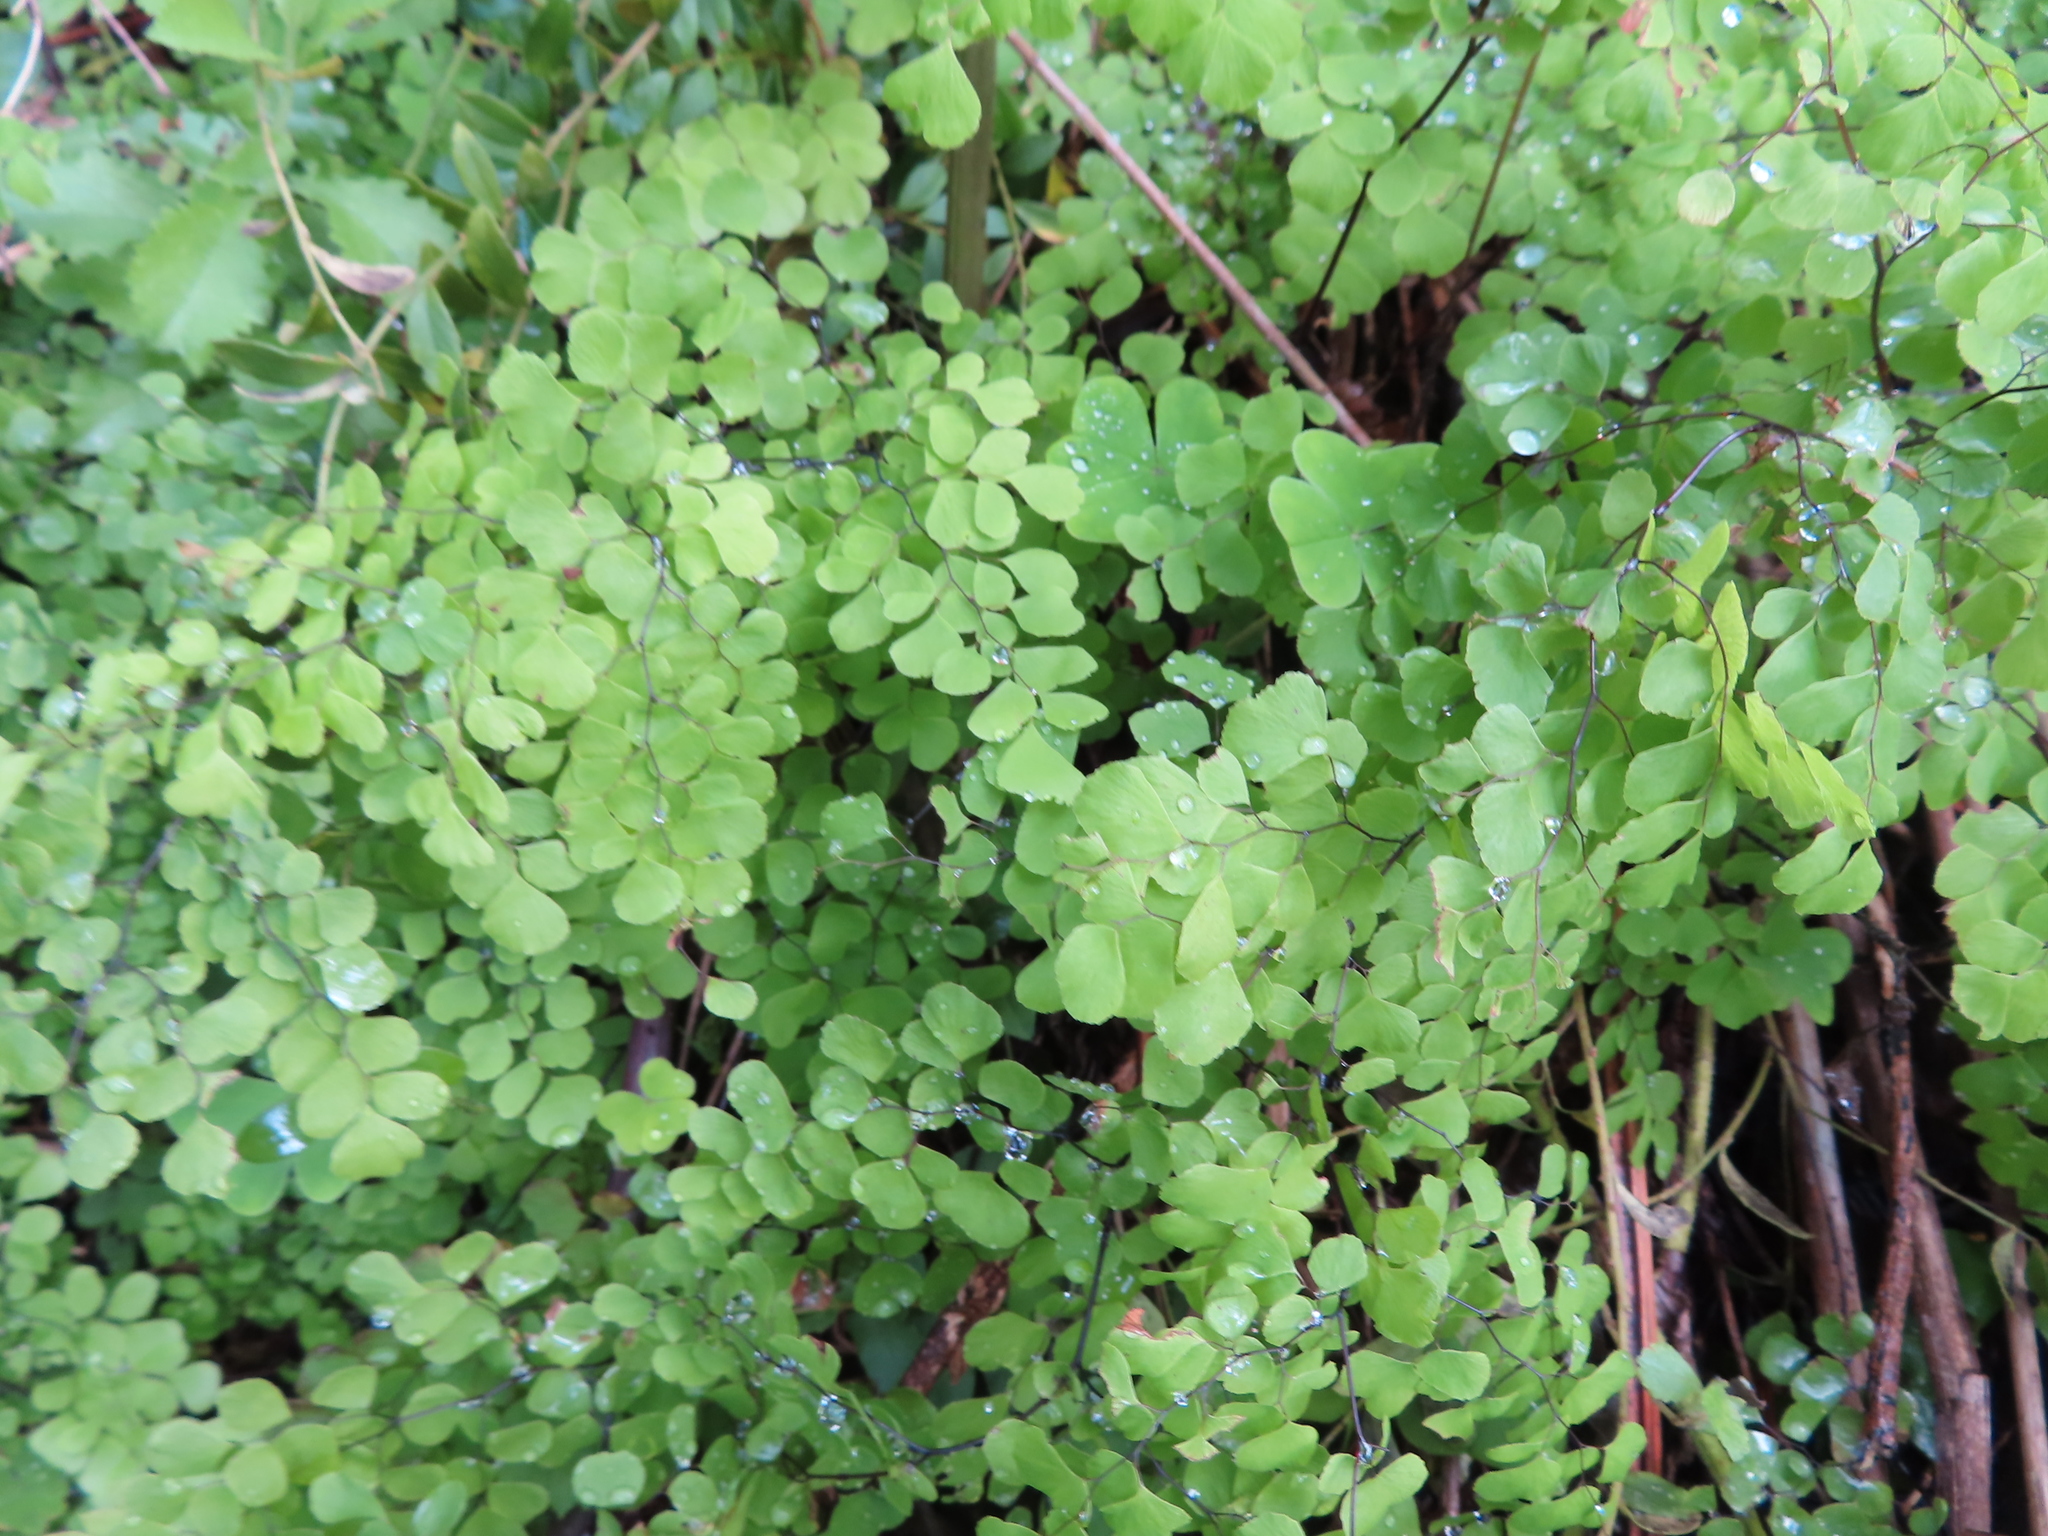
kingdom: Plantae
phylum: Tracheophyta
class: Polypodiopsida
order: Polypodiales
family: Pteridaceae
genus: Adiantum
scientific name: Adiantum aethiopicum
